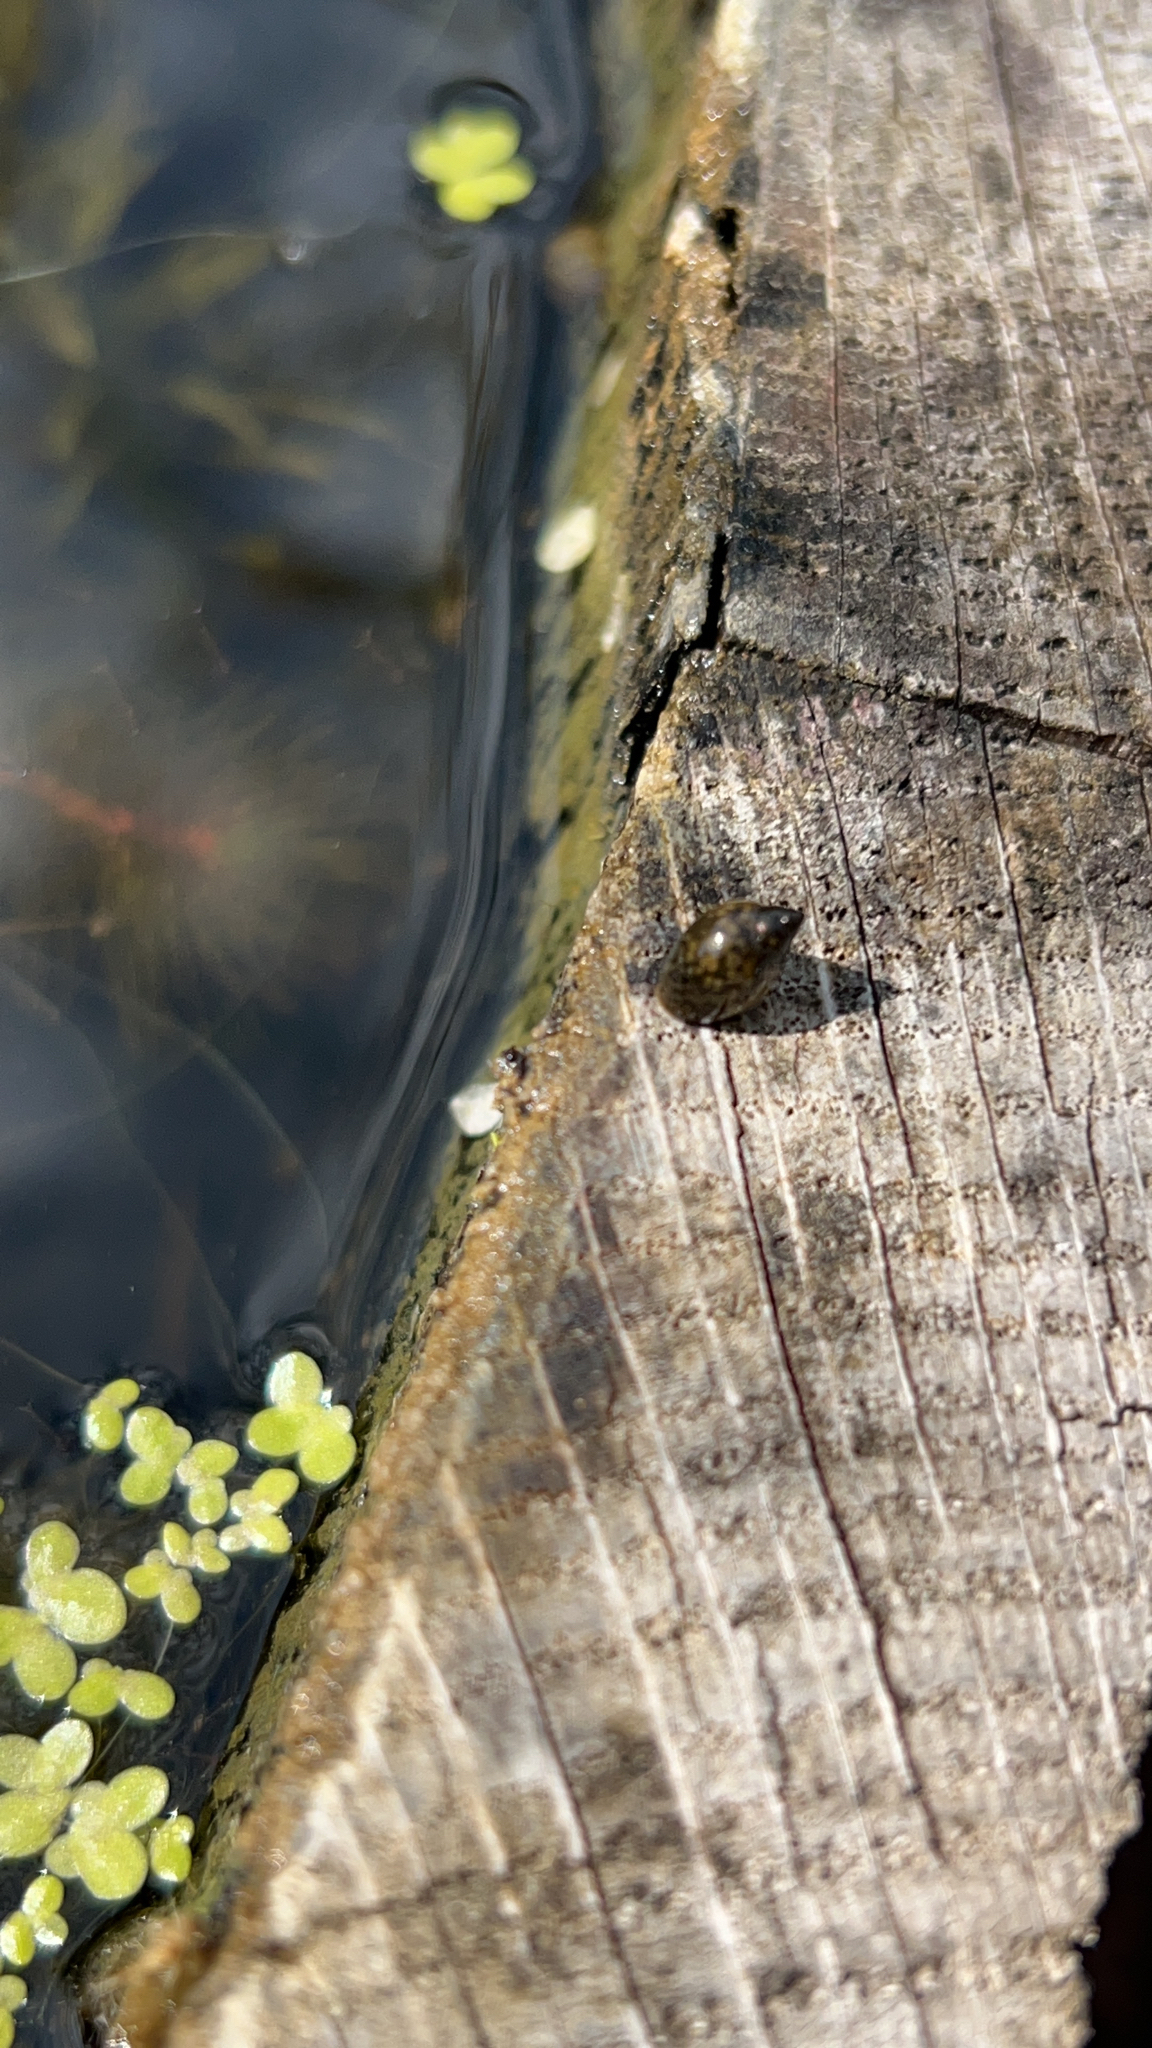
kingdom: Animalia
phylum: Mollusca
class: Gastropoda
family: Physidae
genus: Physella
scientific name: Physella acuta
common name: European physa
